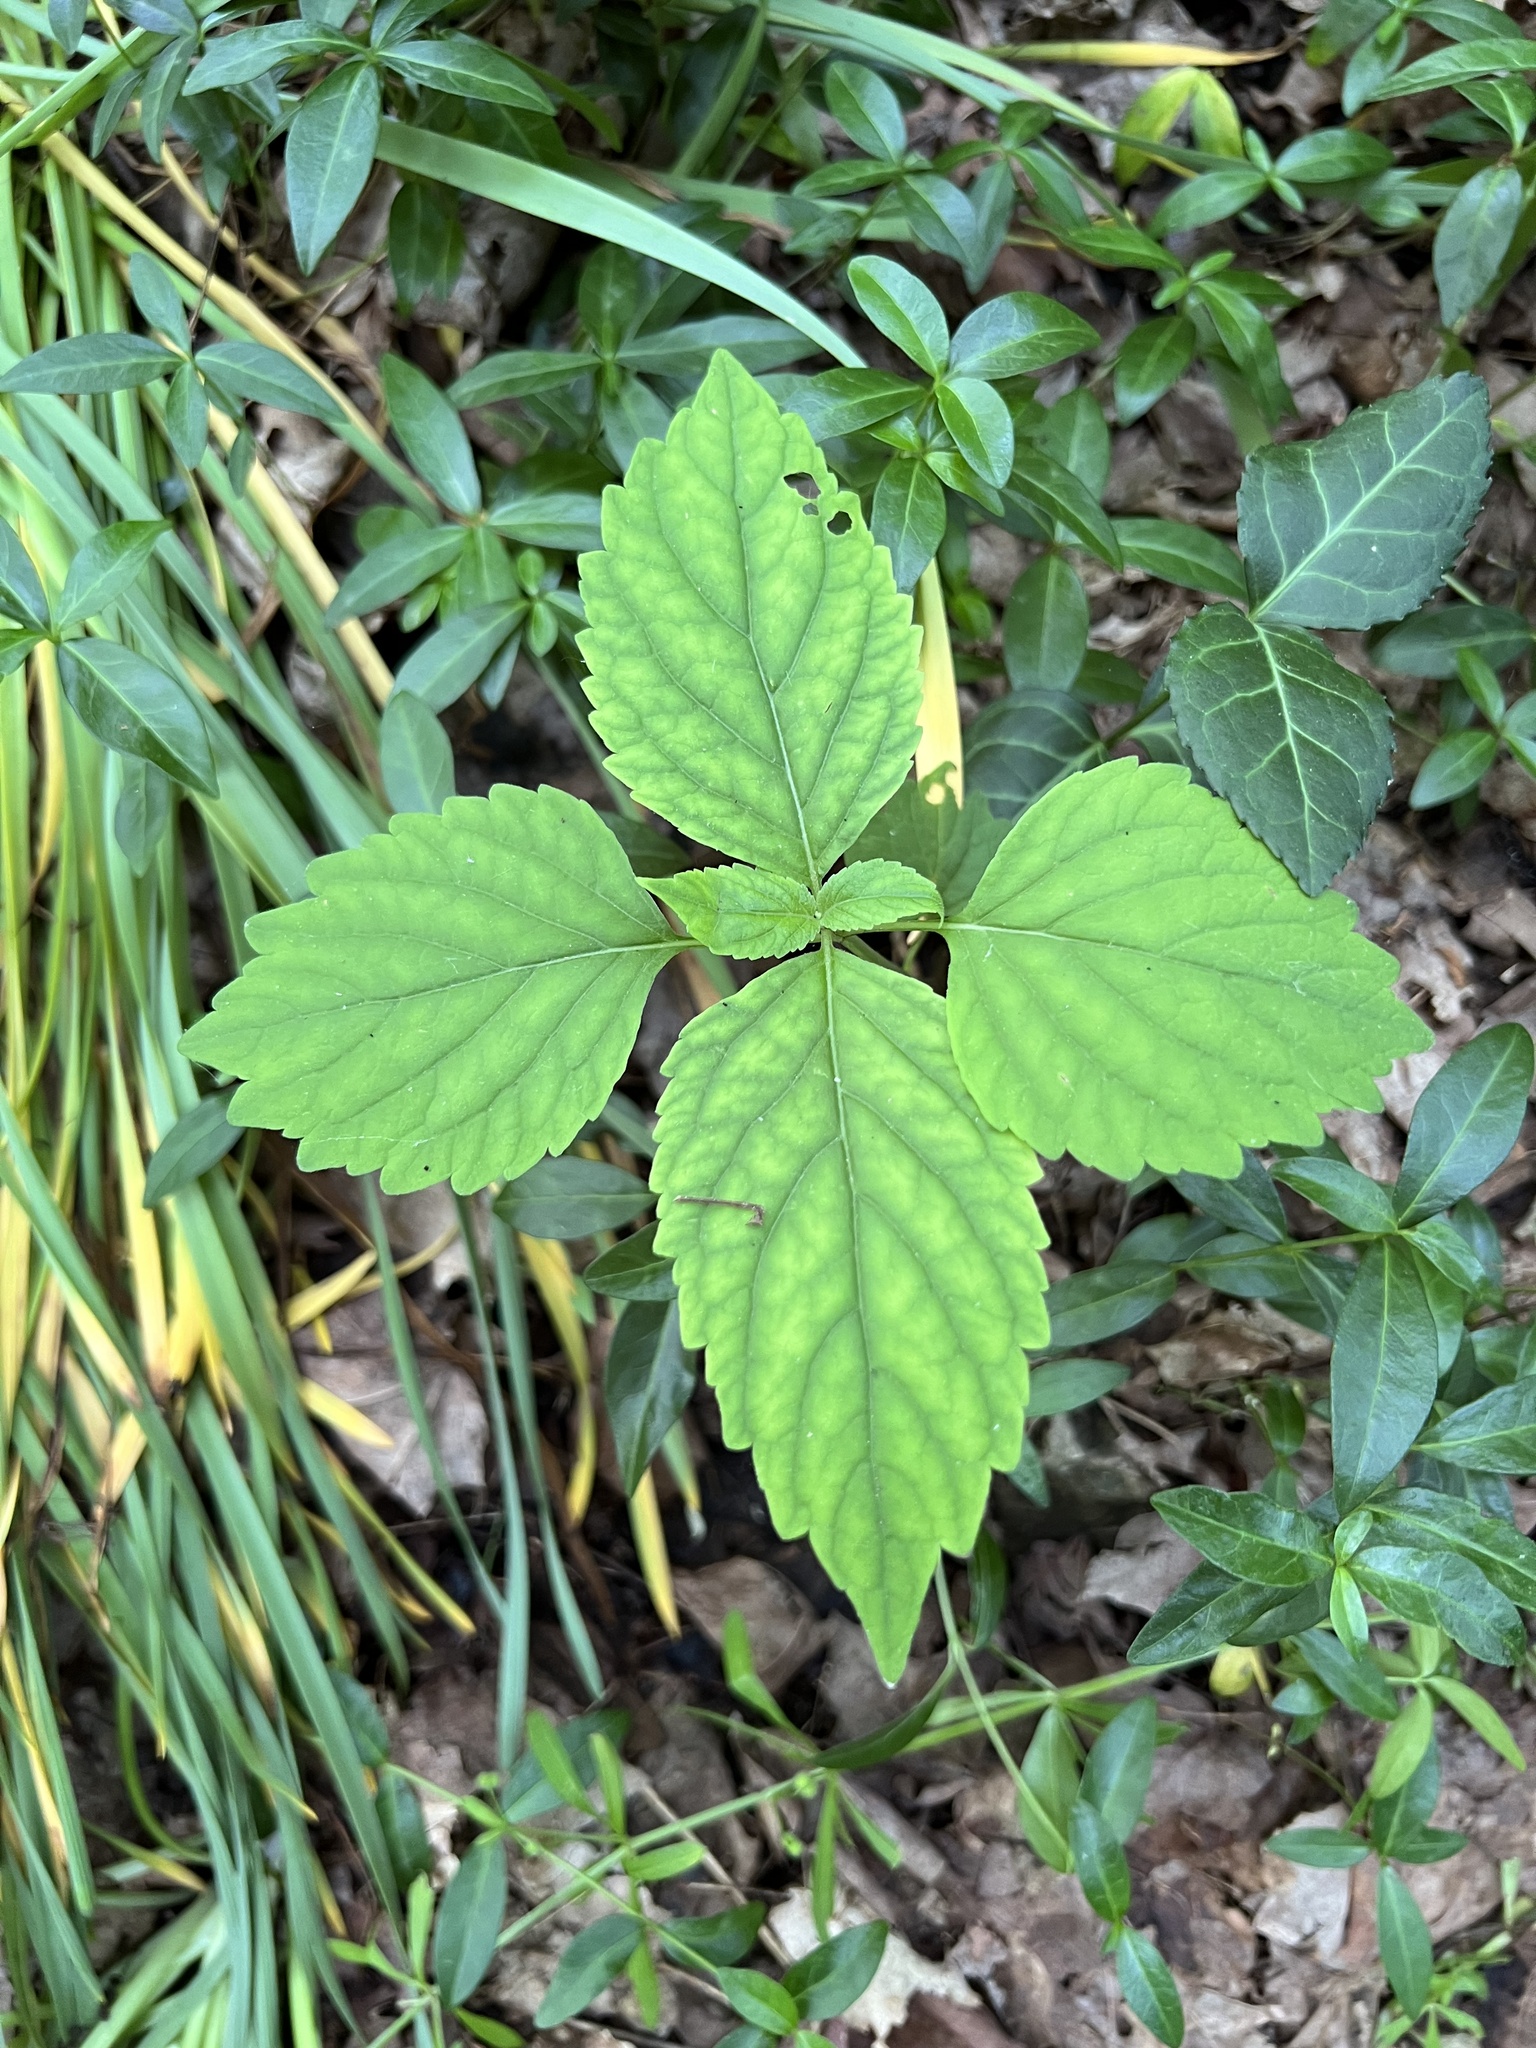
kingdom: Plantae
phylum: Tracheophyta
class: Magnoliopsida
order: Lamiales
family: Phrymaceae
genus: Phryma
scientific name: Phryma leptostachya
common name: American lopseed
